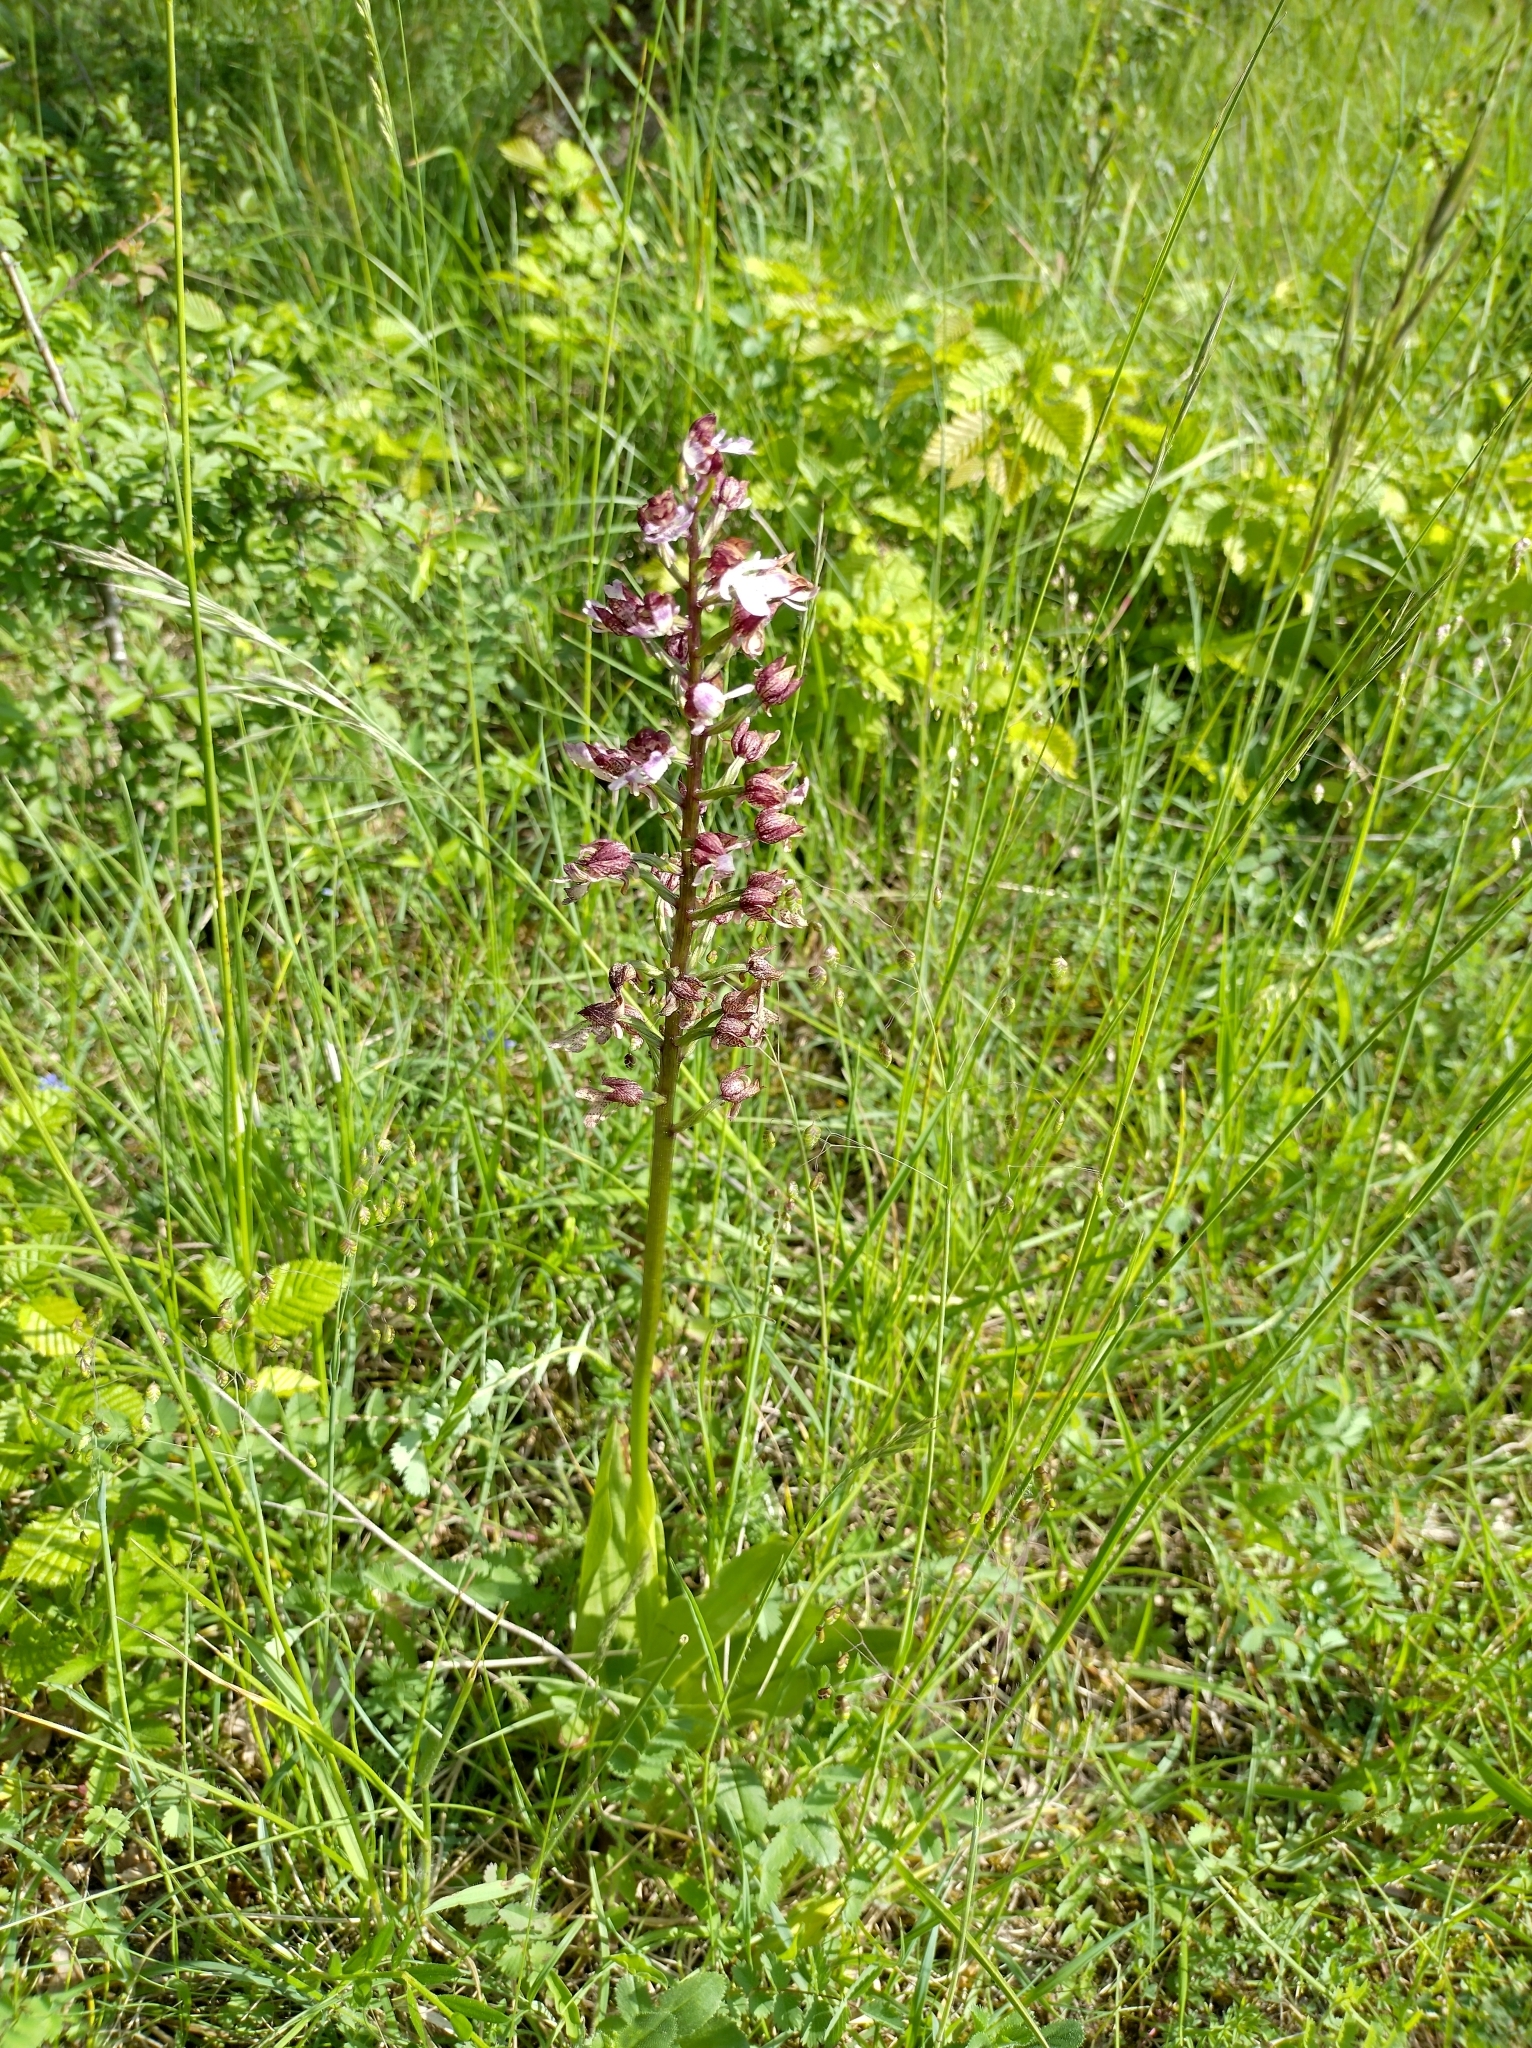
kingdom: Plantae
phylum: Tracheophyta
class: Liliopsida
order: Asparagales
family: Orchidaceae
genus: Orchis
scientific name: Orchis purpurea
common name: Lady orchid
